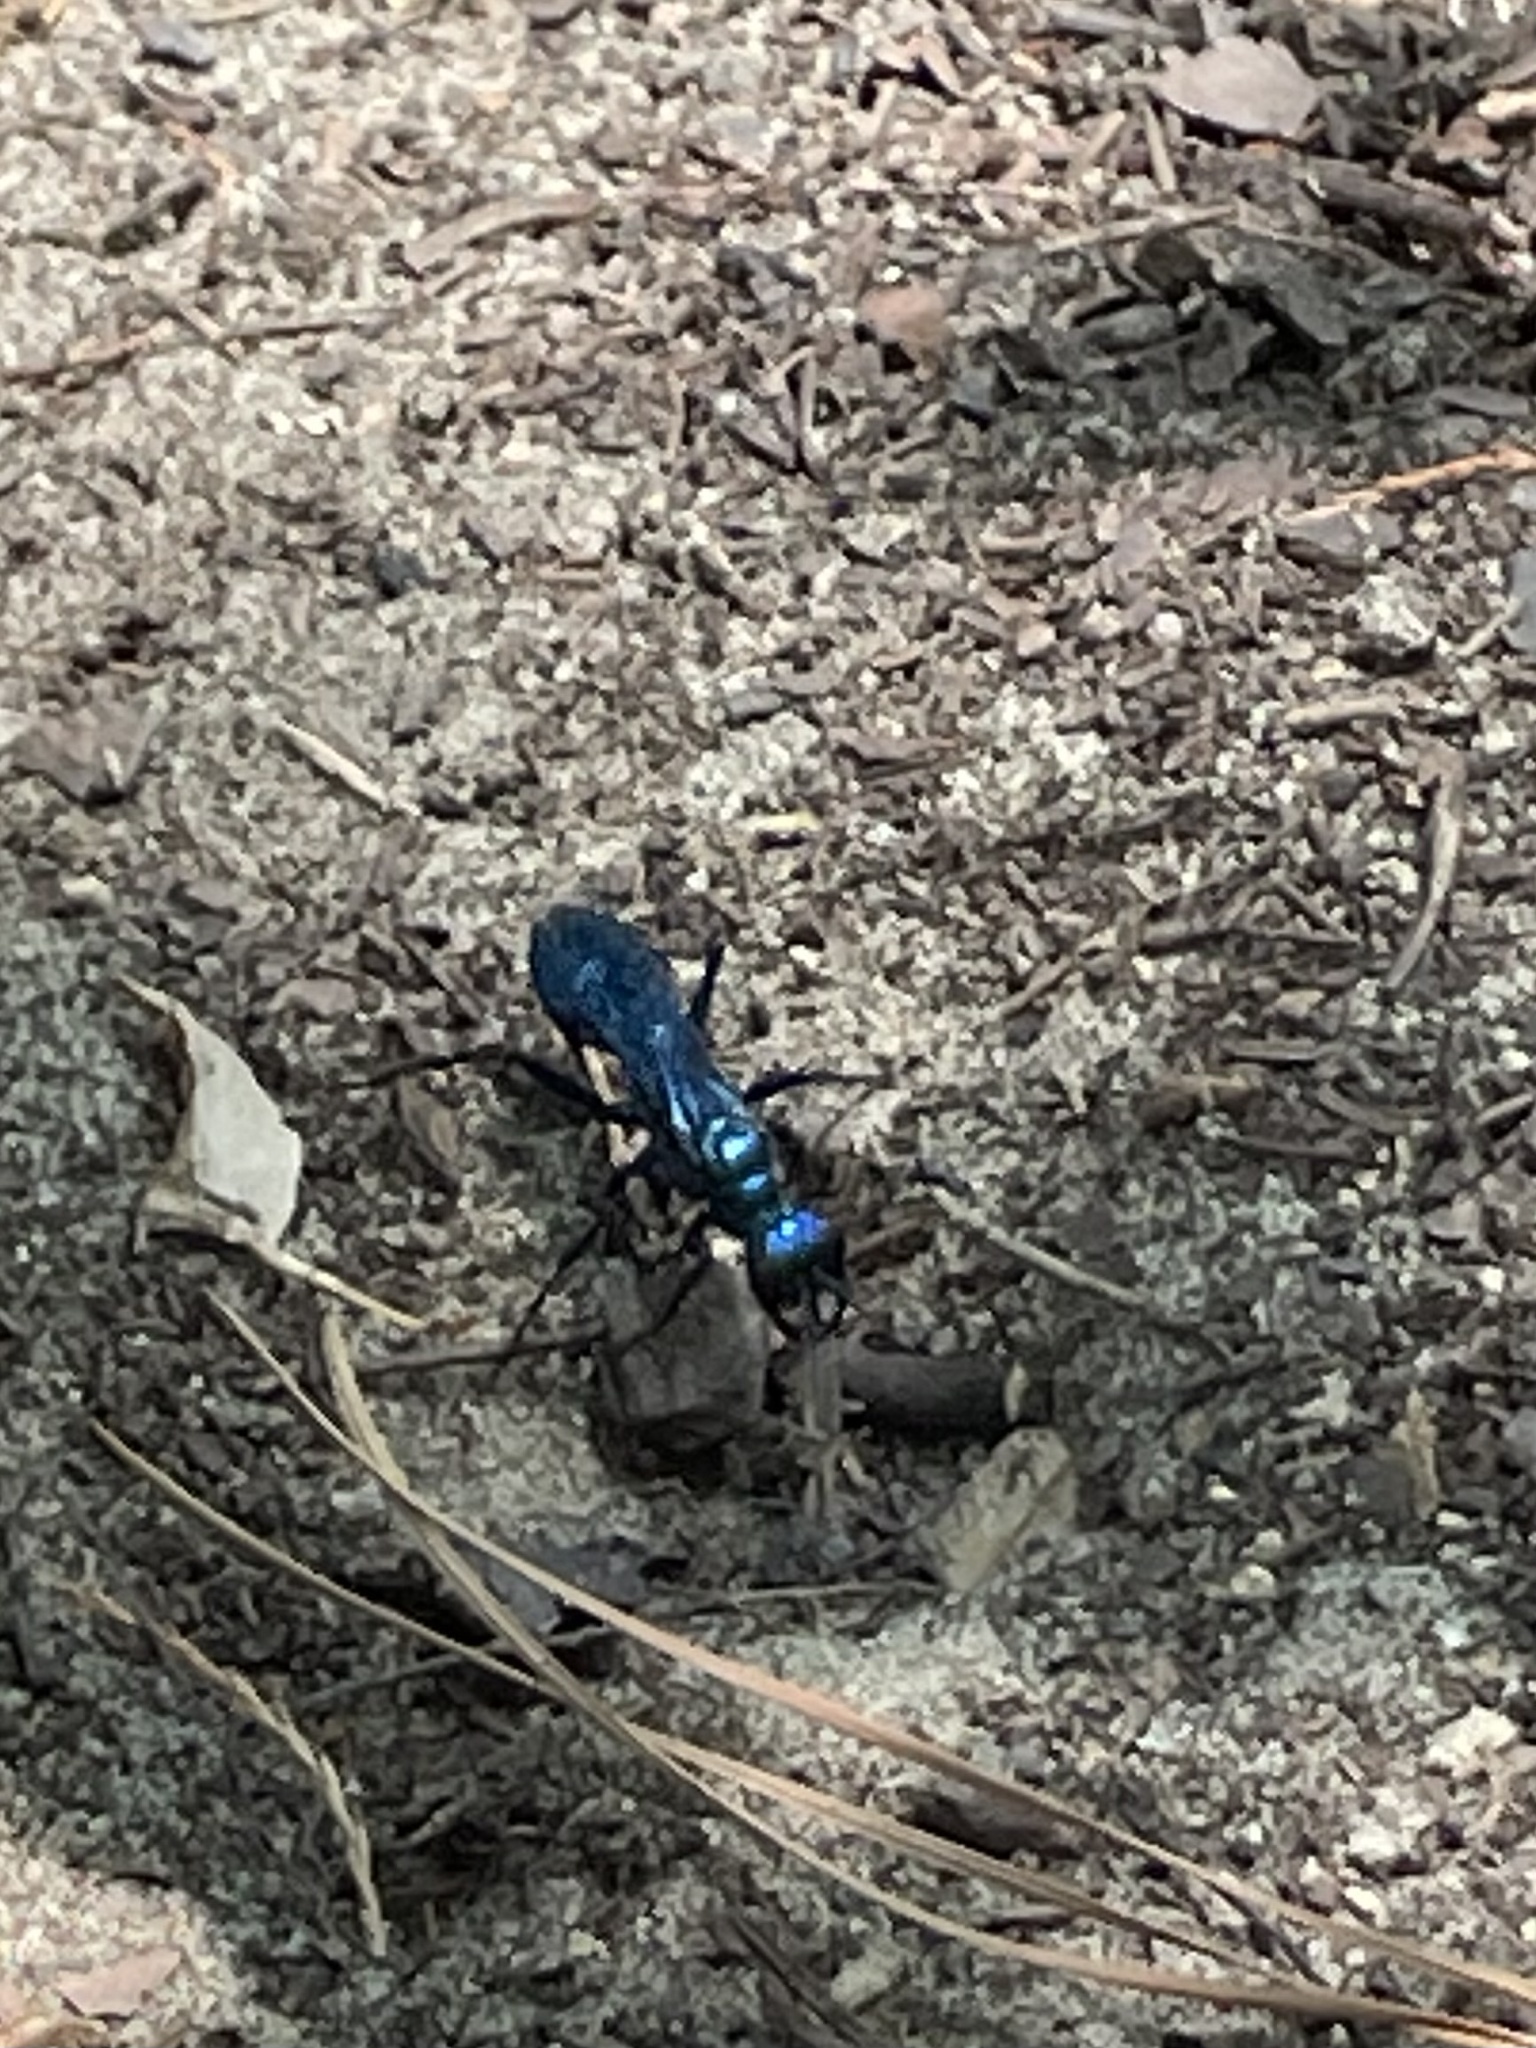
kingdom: Animalia
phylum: Arthropoda
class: Insecta
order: Hymenoptera
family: Sphecidae
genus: Chlorion
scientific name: Chlorion
